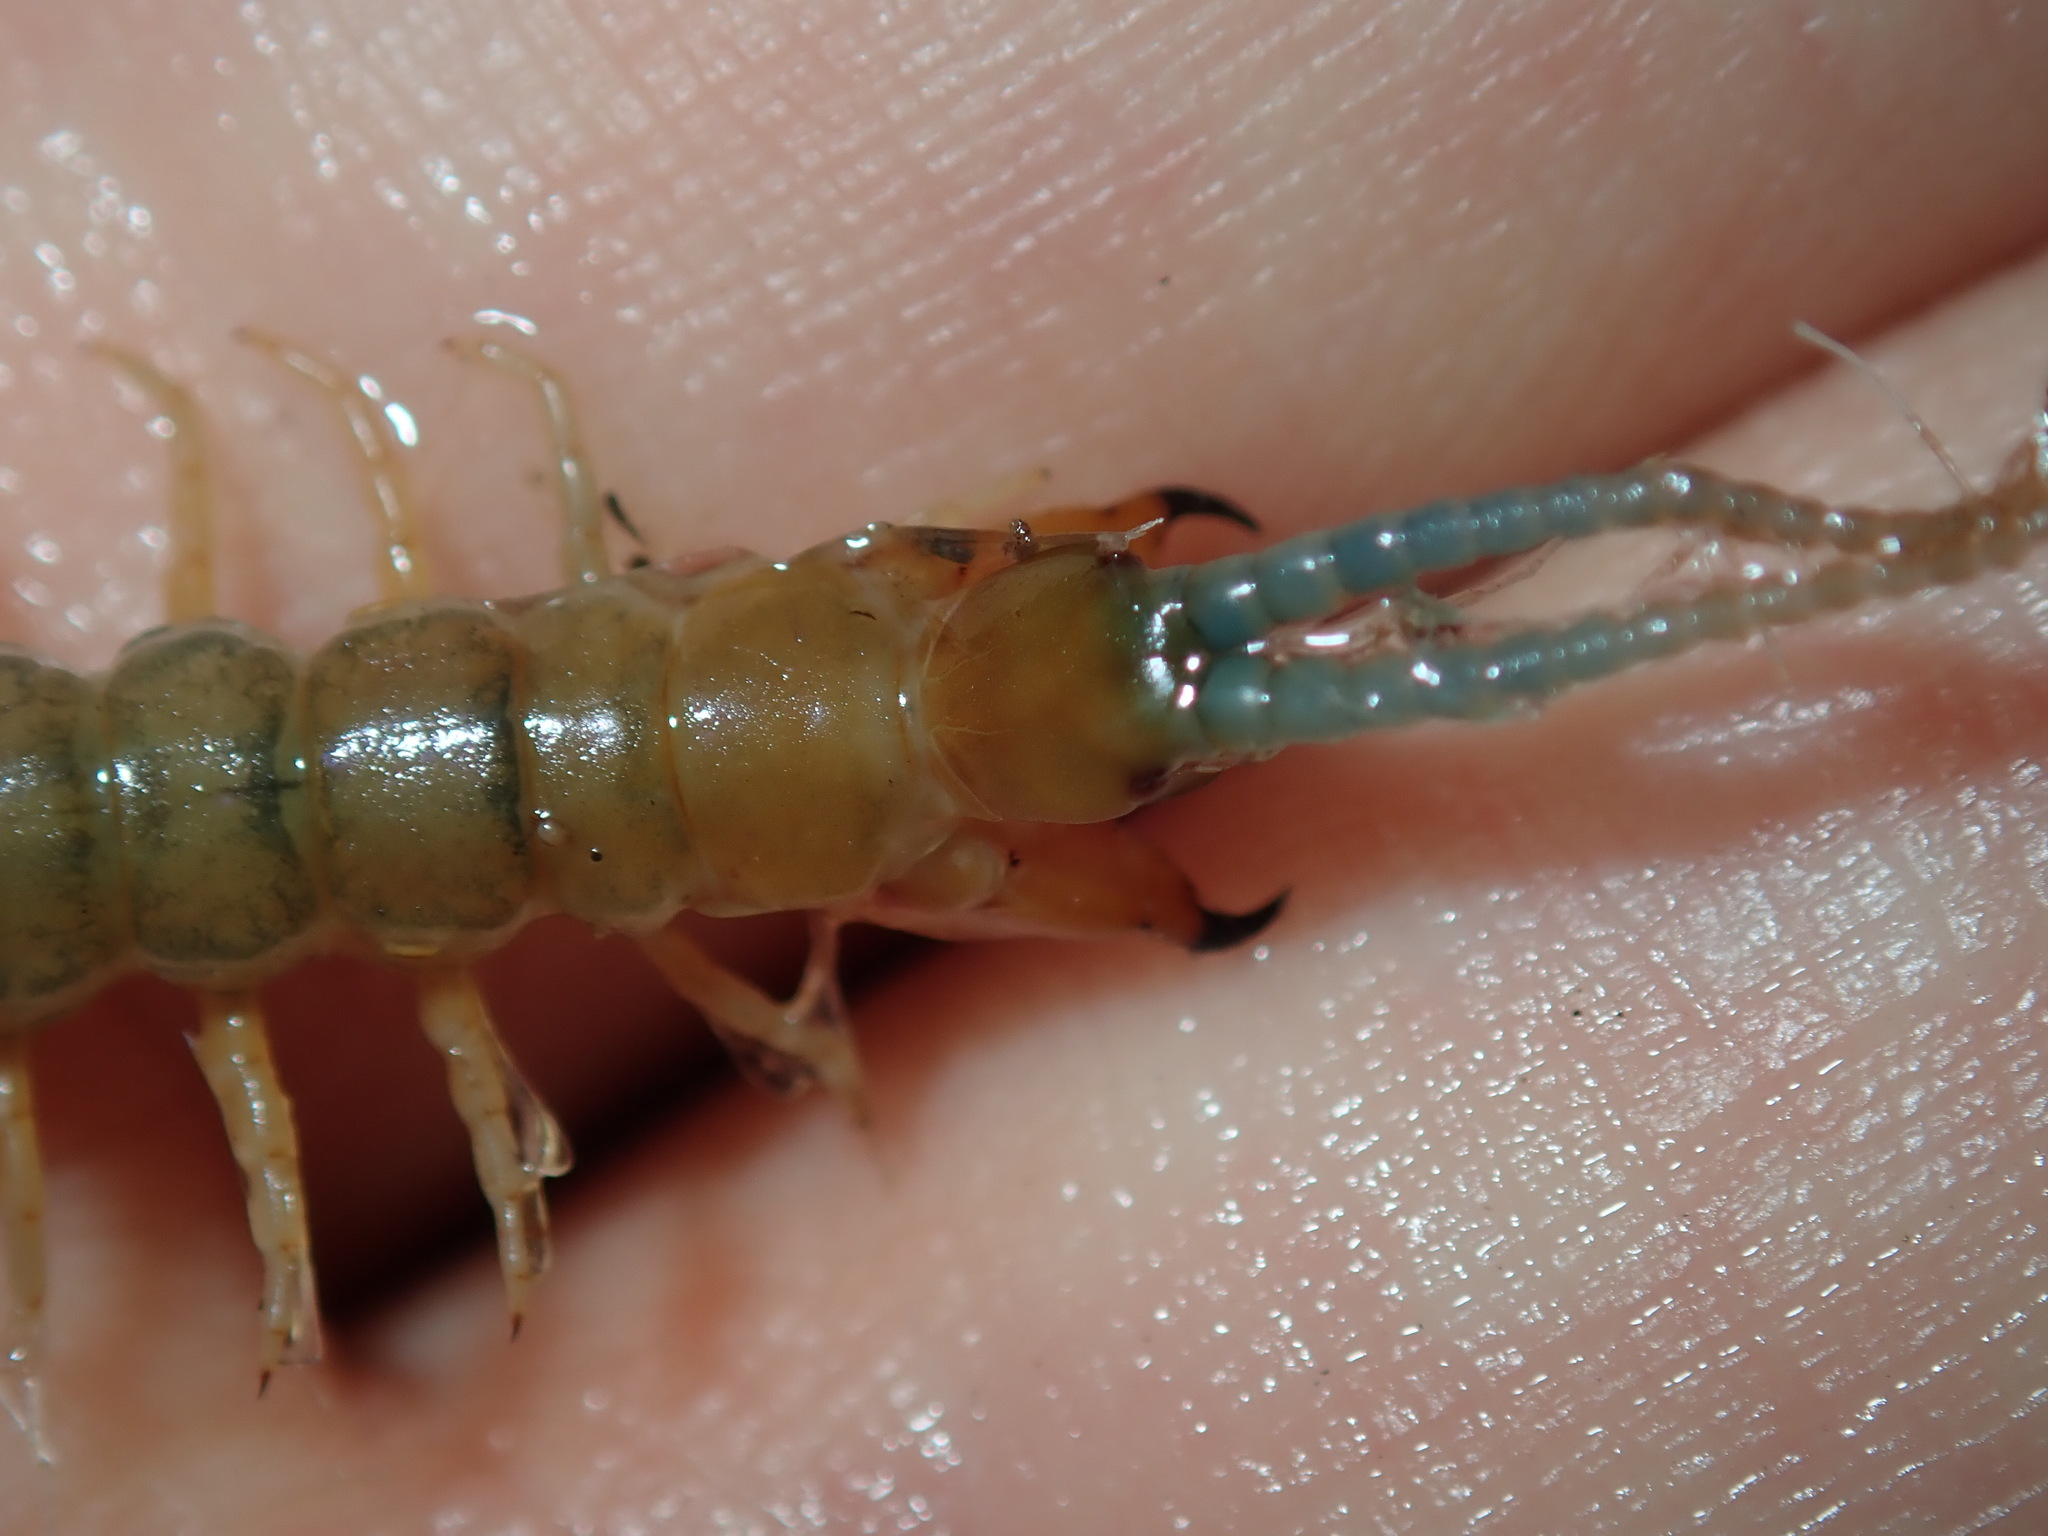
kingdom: Animalia
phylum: Arthropoda
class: Chilopoda
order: Scolopendromorpha
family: Scolopendridae
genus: Cormocephalus
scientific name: Cormocephalus westwoodi
